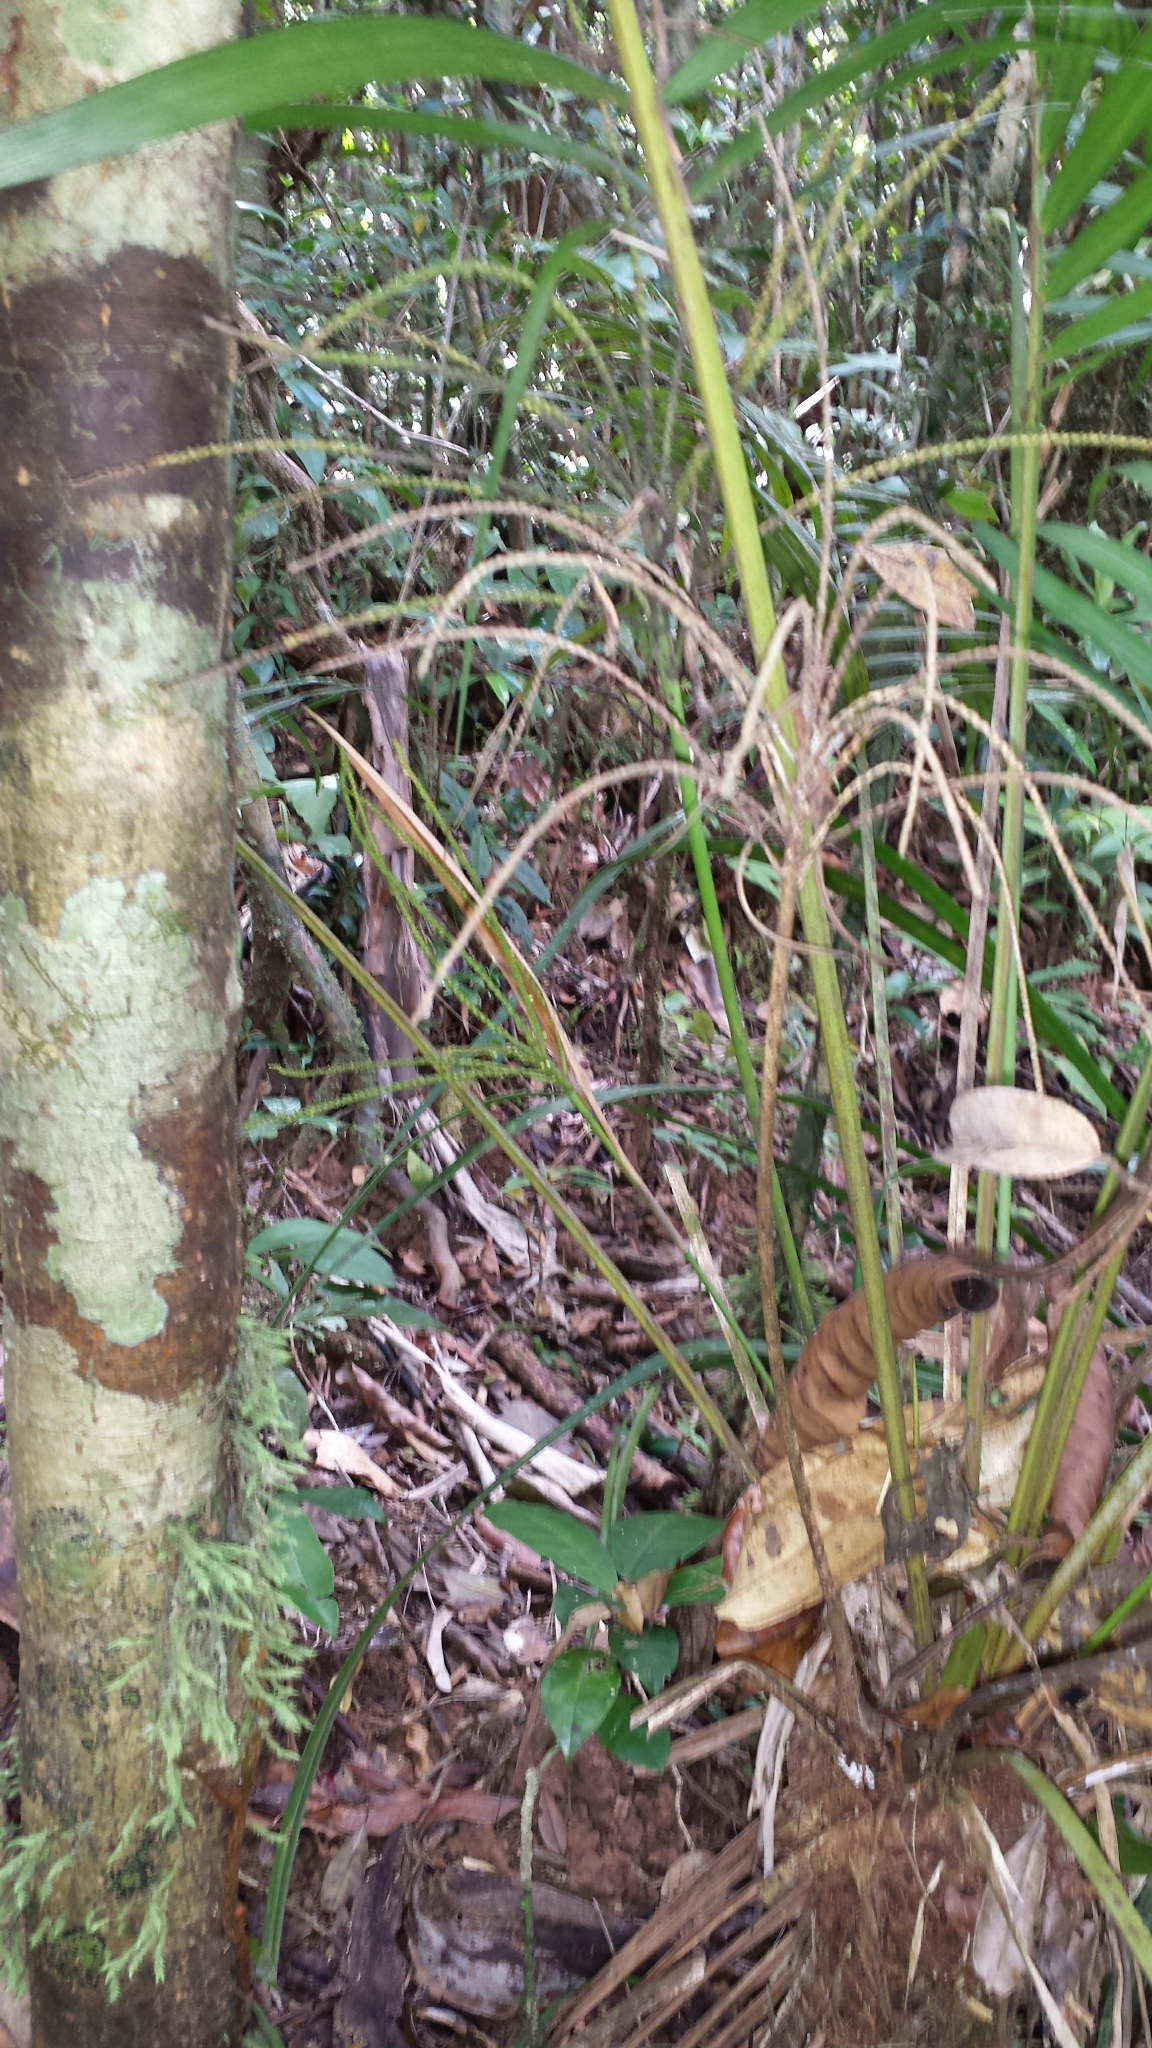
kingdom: Plantae
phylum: Tracheophyta
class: Liliopsida
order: Arecales
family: Arecaceae
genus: Dypsis
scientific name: Dypsis pusilla
